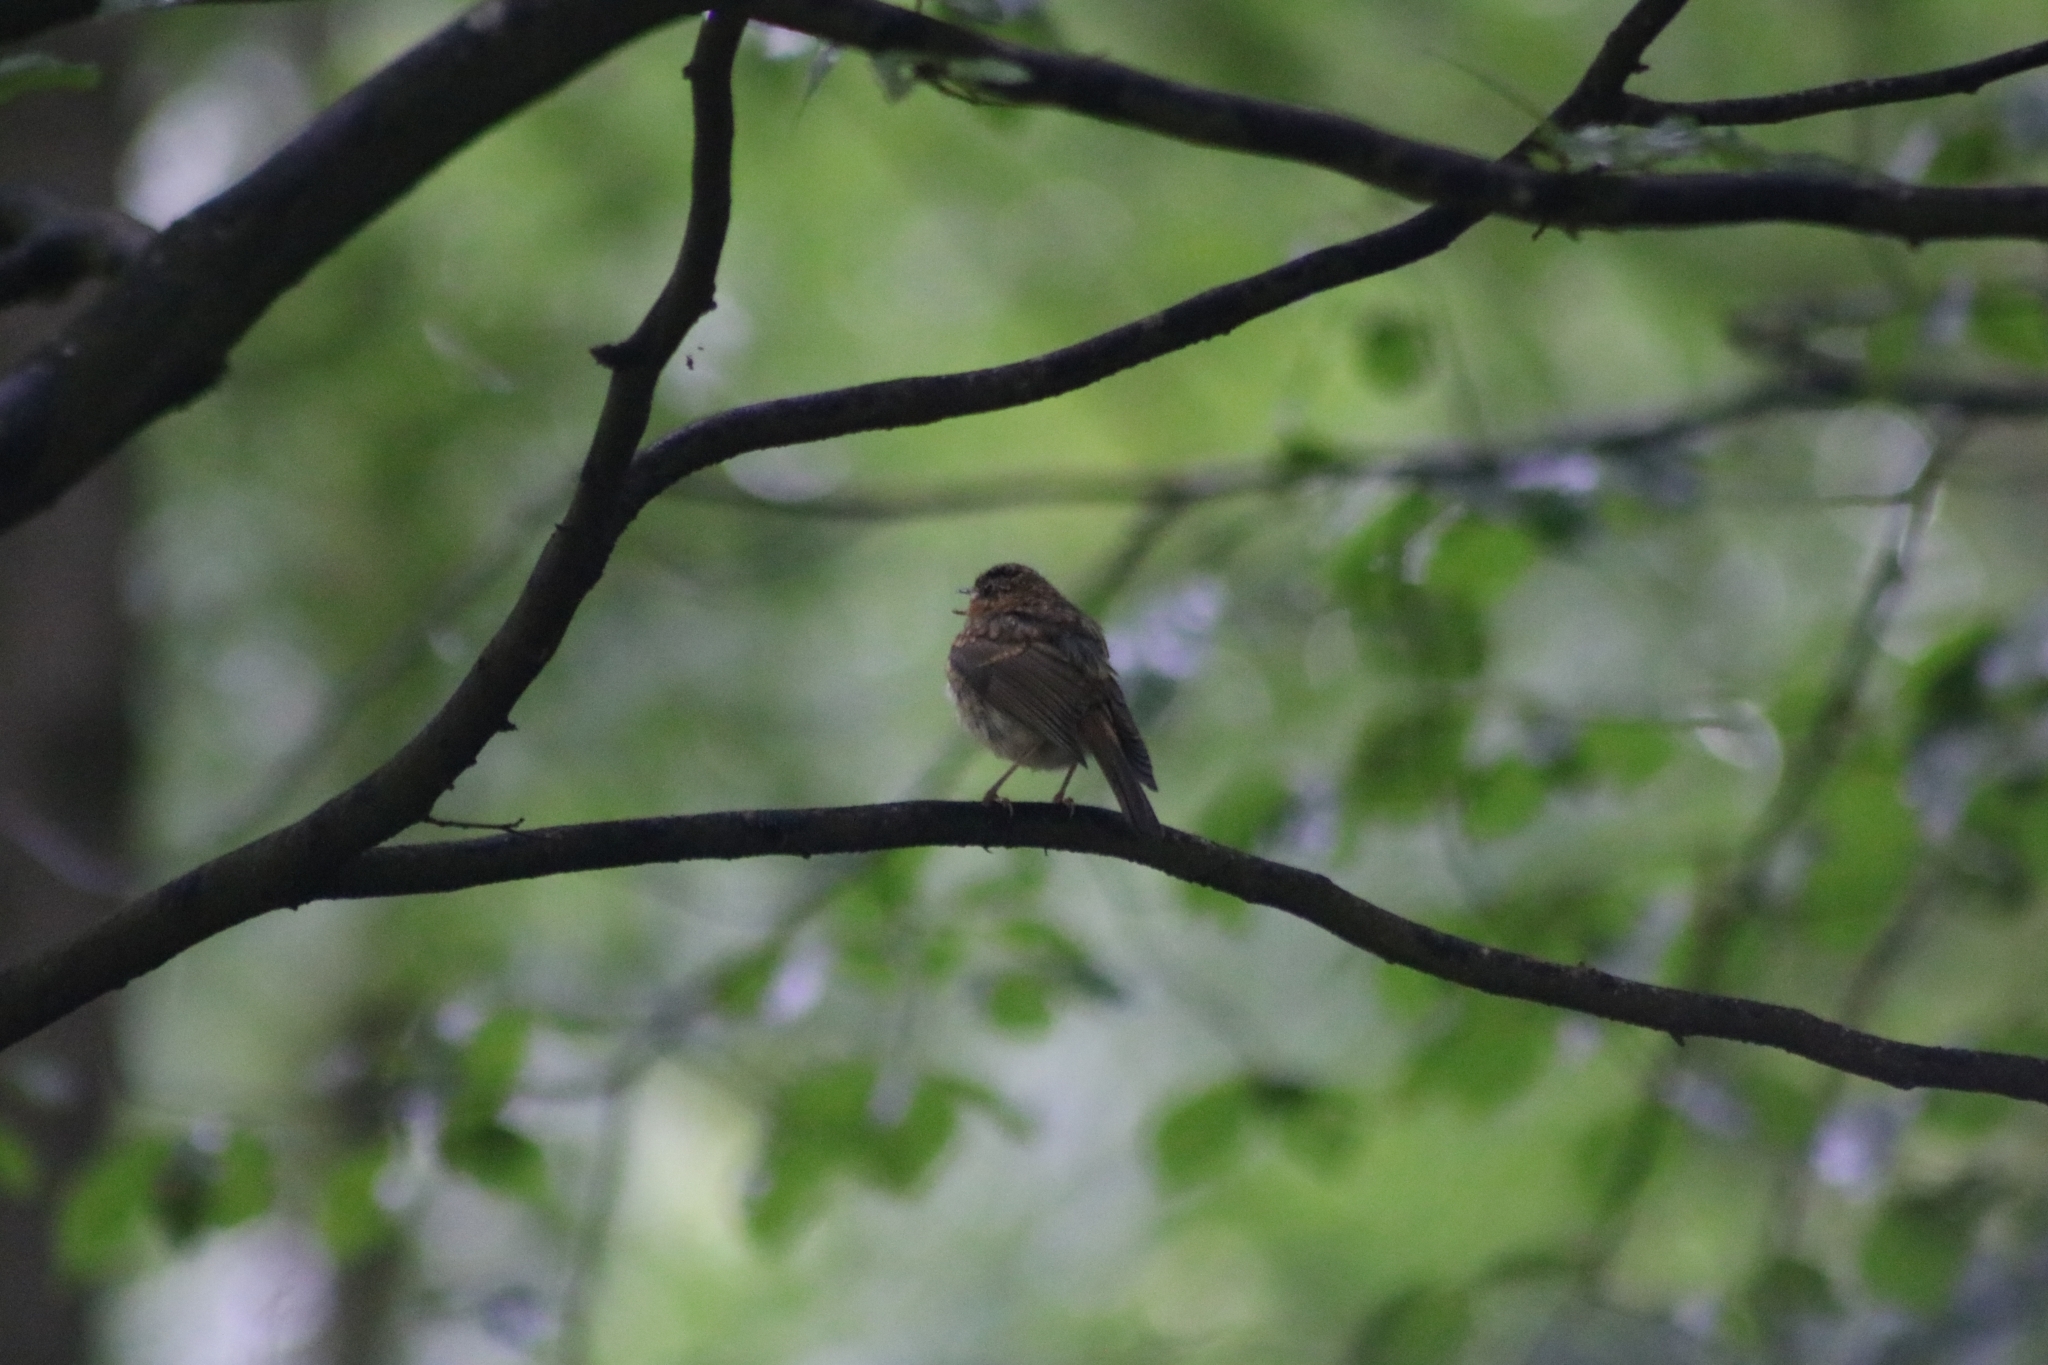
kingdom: Animalia
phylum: Chordata
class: Aves
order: Passeriformes
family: Muscicapidae
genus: Erithacus
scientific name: Erithacus rubecula
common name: European robin
